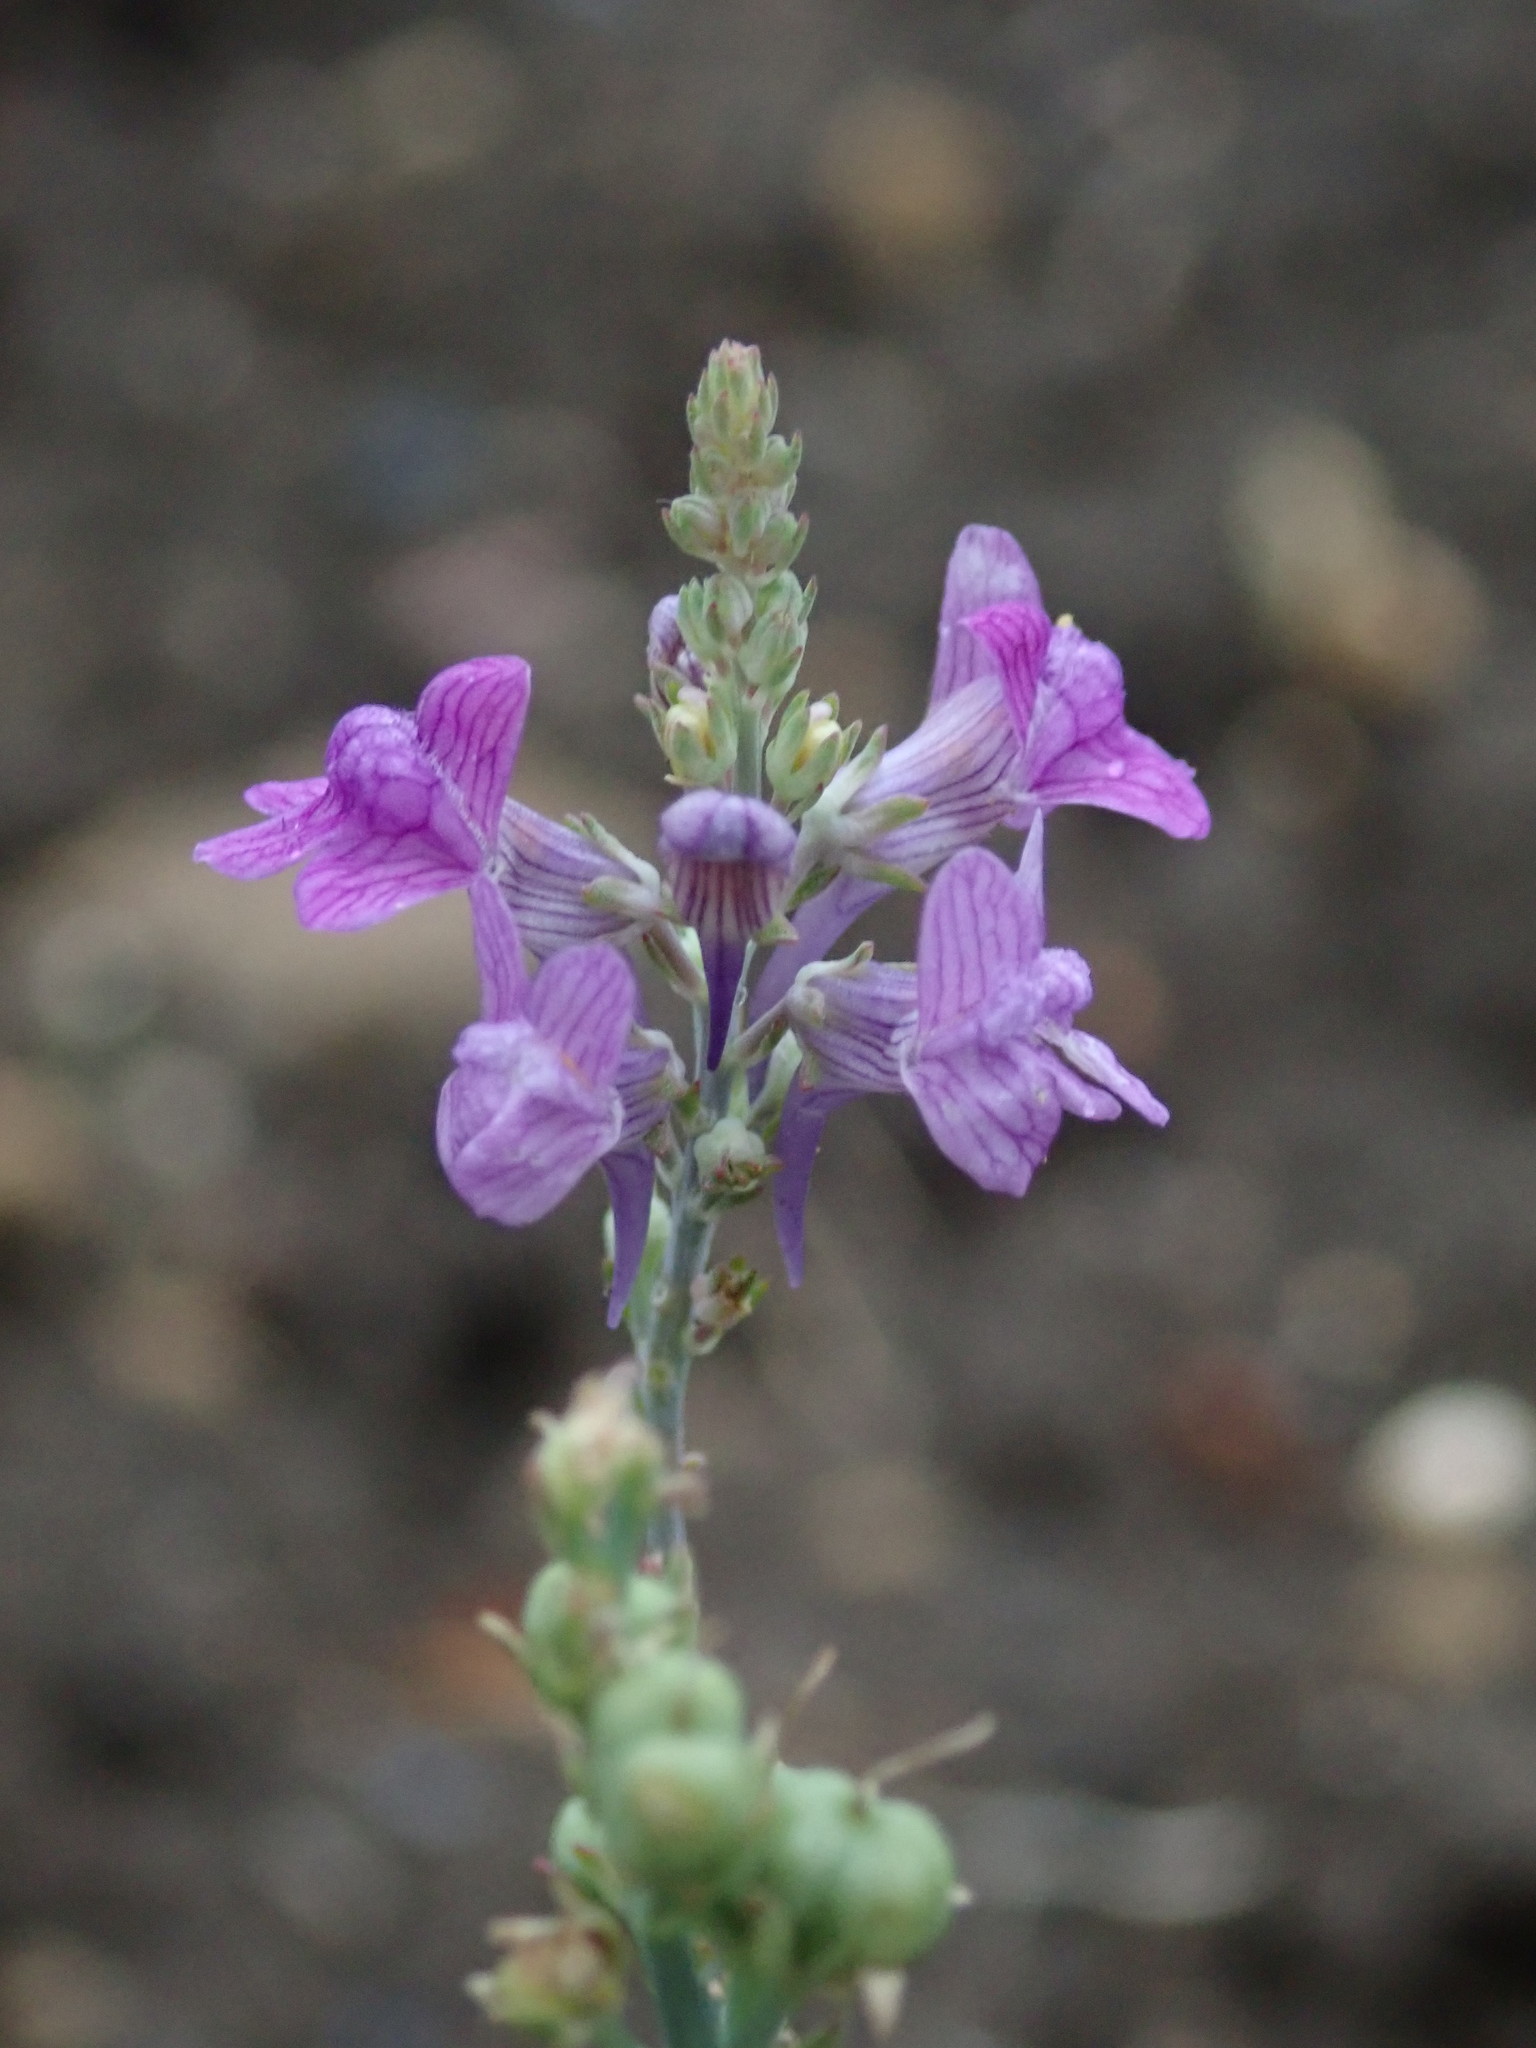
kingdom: Plantae
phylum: Tracheophyta
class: Magnoliopsida
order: Lamiales
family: Plantaginaceae
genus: Linaria
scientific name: Linaria purpurea
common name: Purple toadflax
